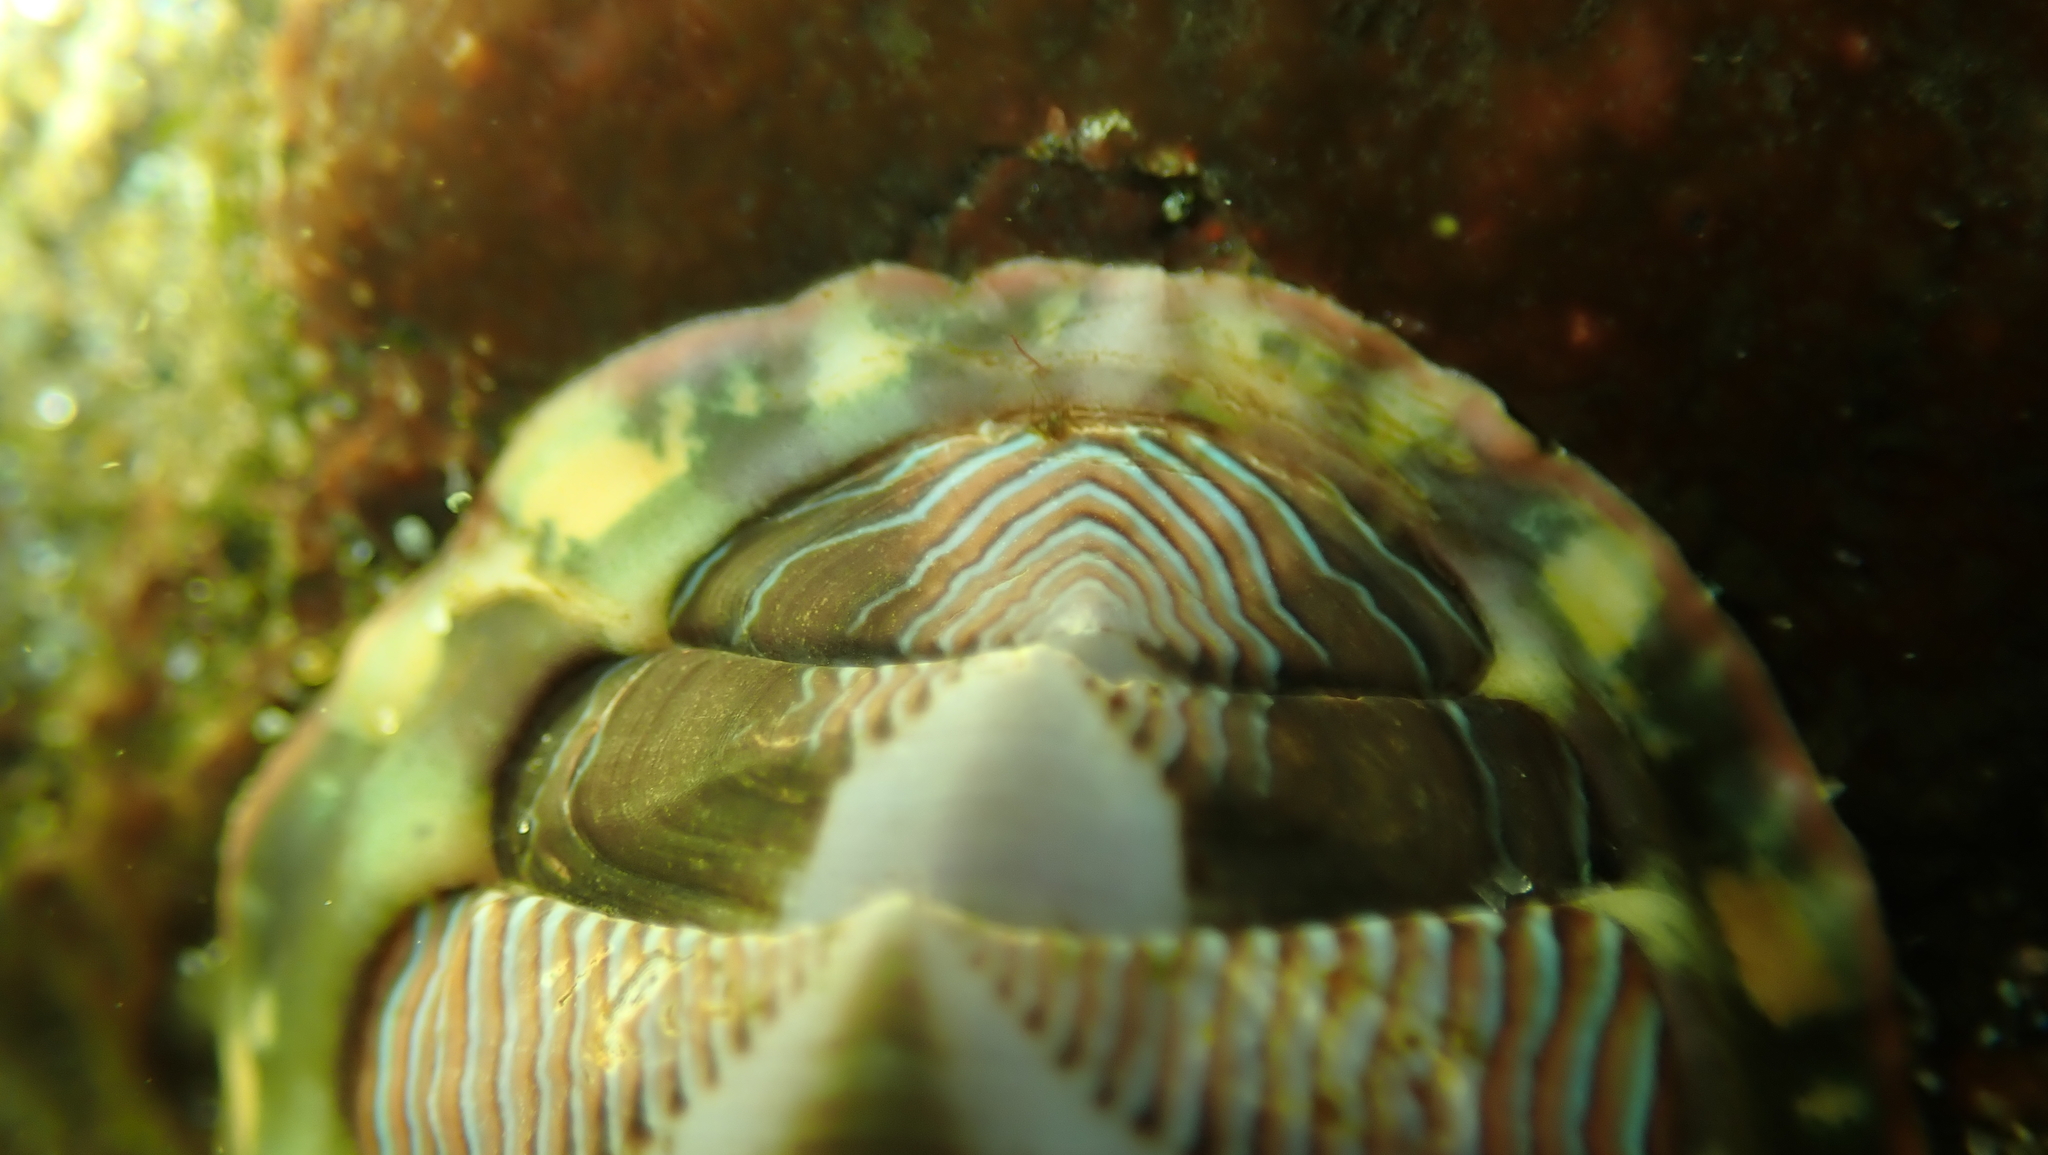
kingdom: Animalia
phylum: Mollusca
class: Polyplacophora
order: Chitonida
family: Tonicellidae
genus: Tonicella
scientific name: Tonicella lineata
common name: Lined chiton
